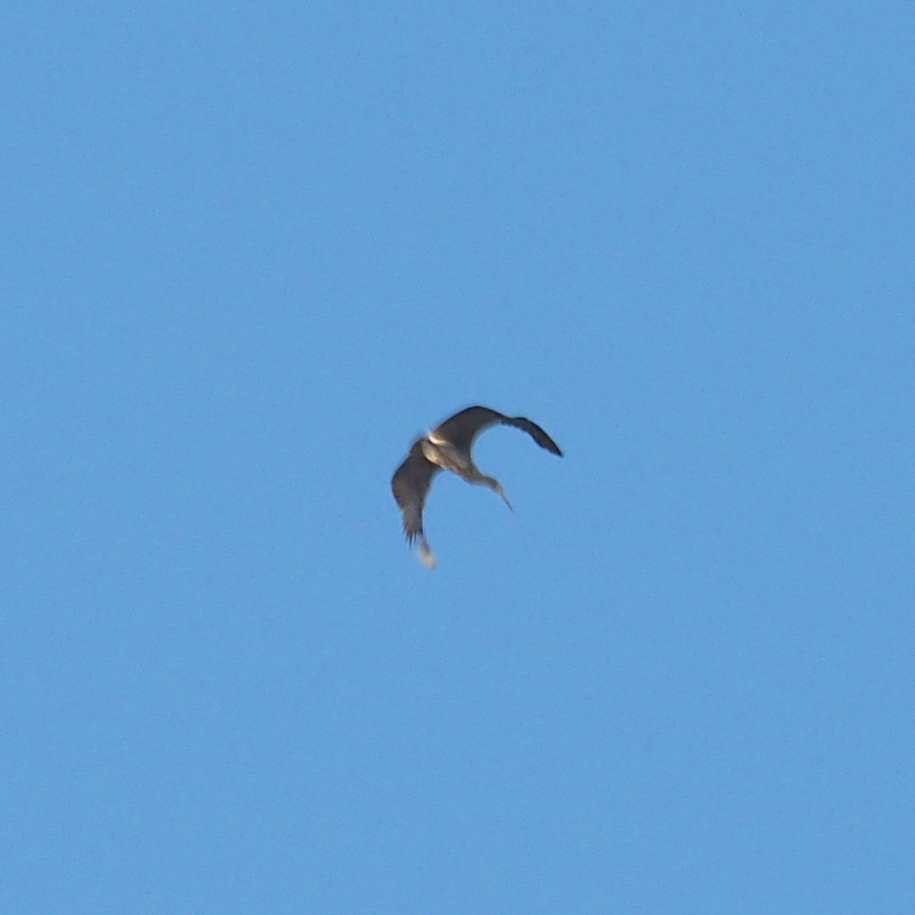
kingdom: Animalia
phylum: Chordata
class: Aves
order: Pelecaniformes
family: Ardeidae
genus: Ardea
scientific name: Ardea cinerea
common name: Grey heron
